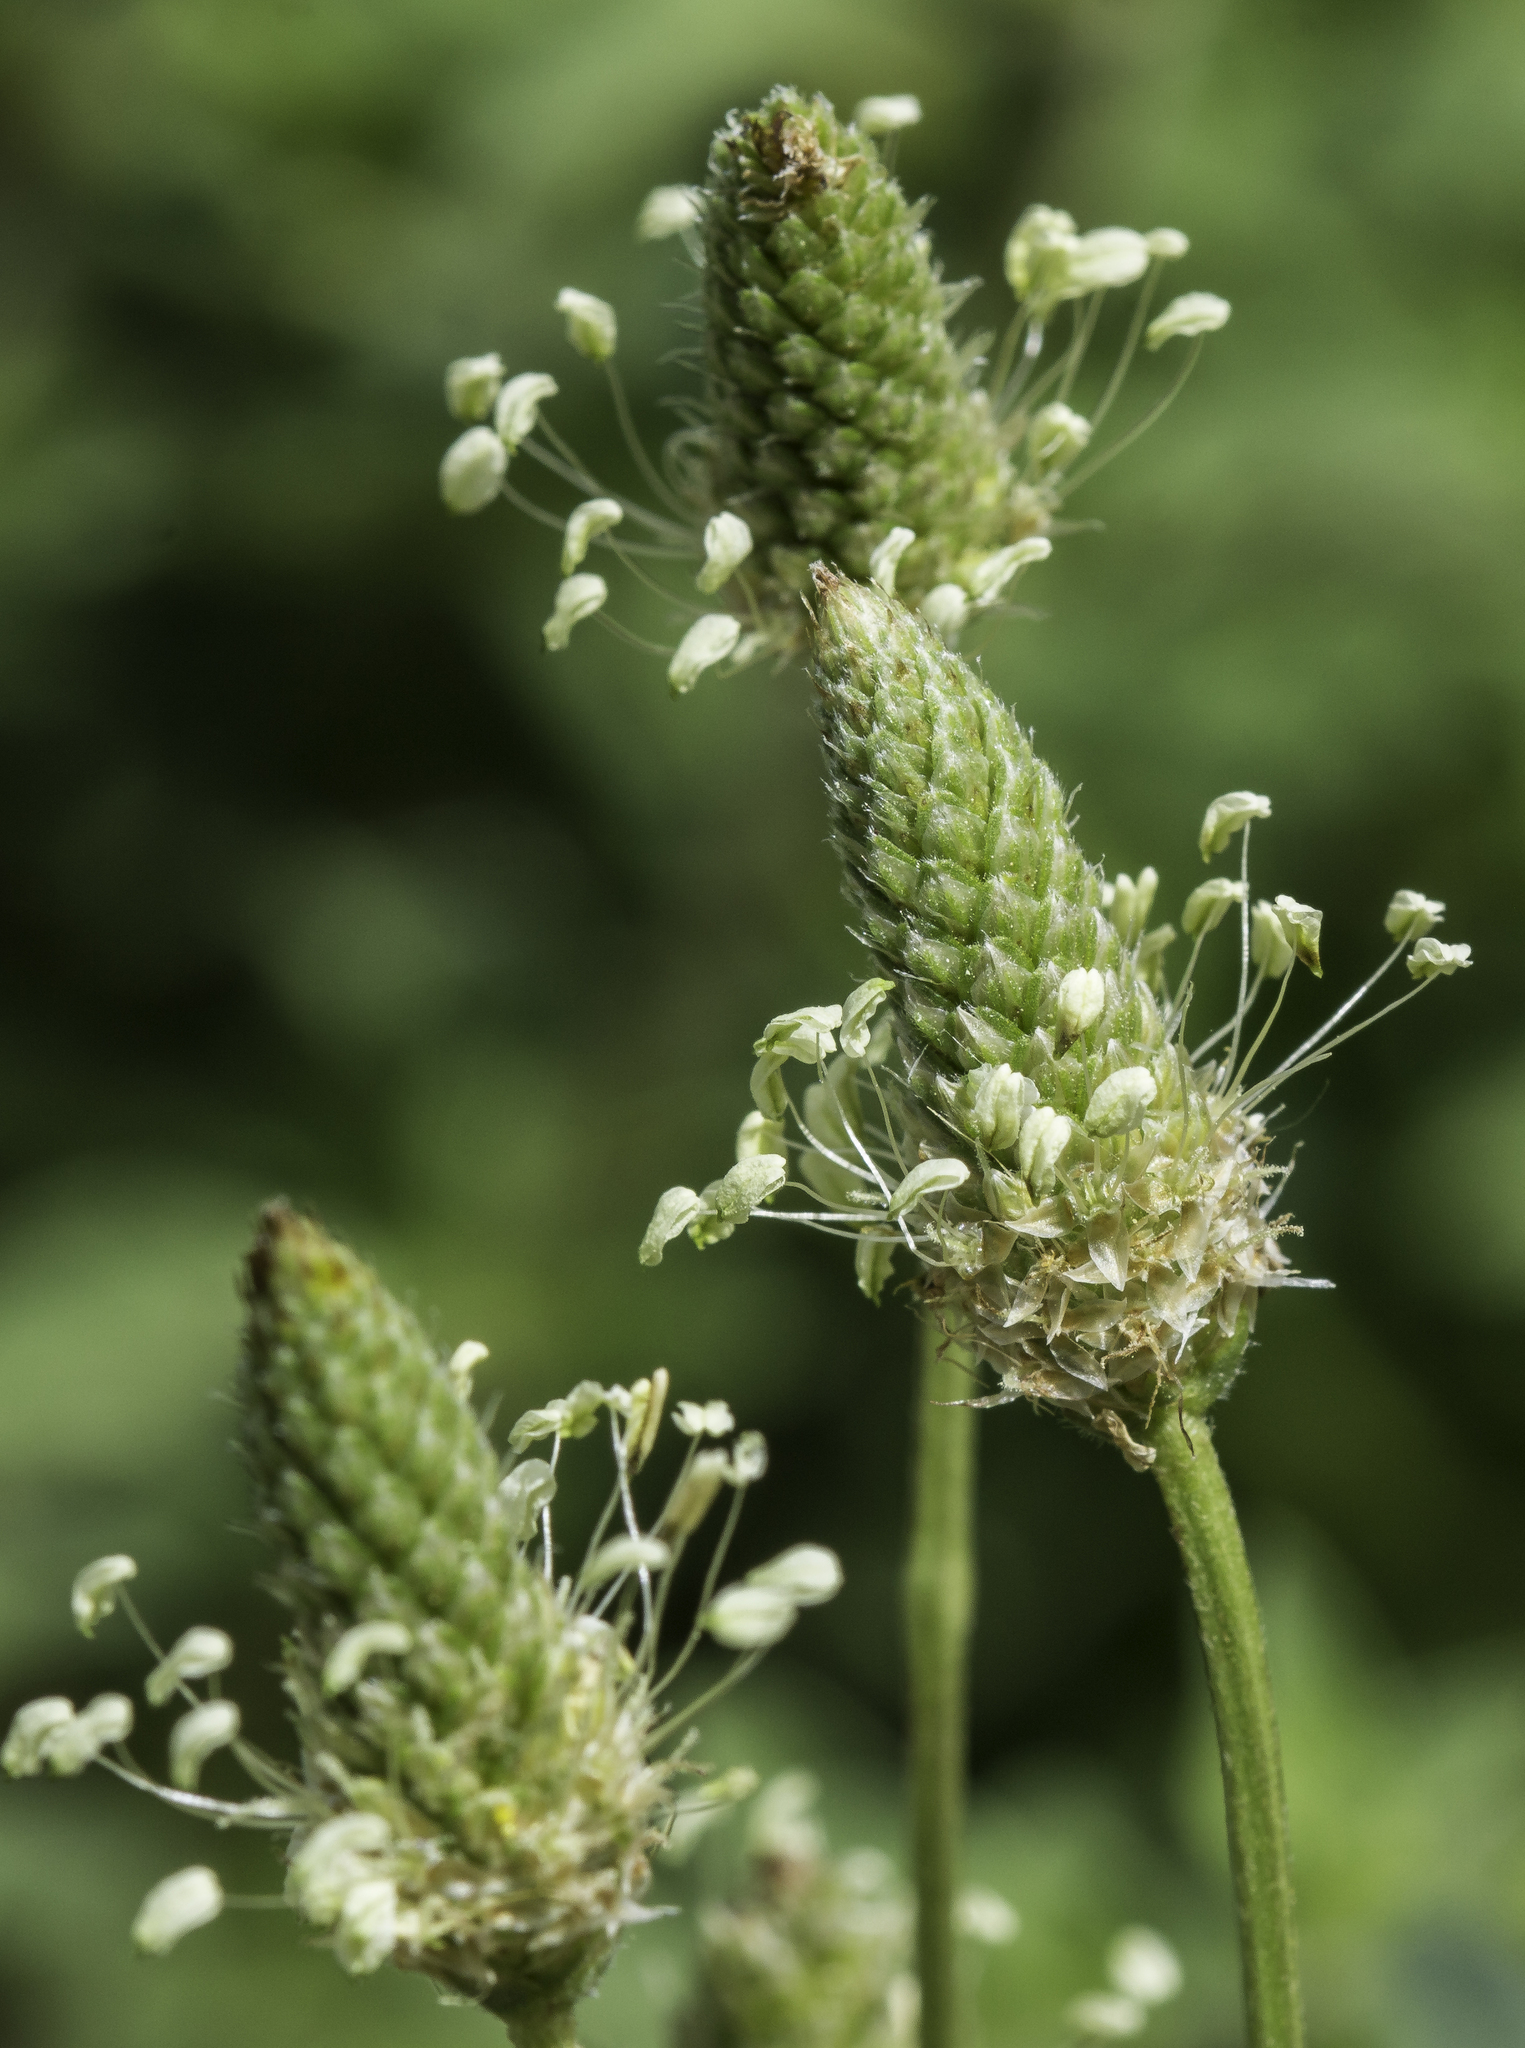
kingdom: Plantae
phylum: Tracheophyta
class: Magnoliopsida
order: Lamiales
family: Plantaginaceae
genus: Plantago
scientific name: Plantago lanceolata
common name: Ribwort plantain
